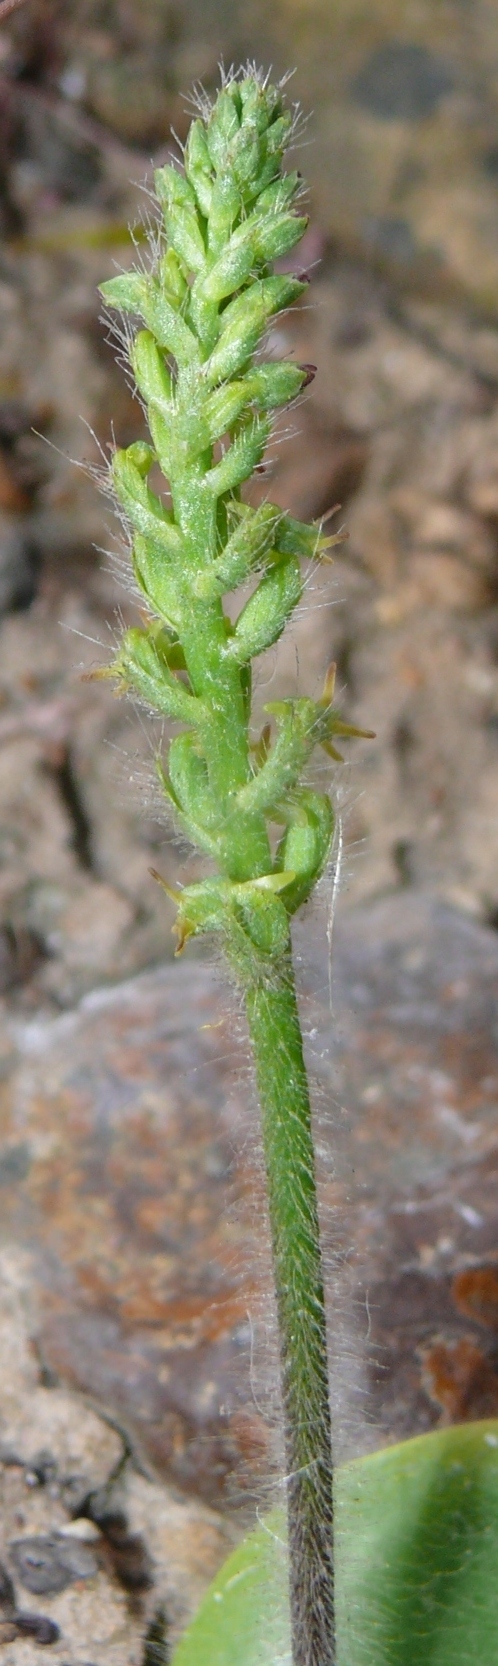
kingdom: Plantae
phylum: Tracheophyta
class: Liliopsida
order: Asparagales
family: Orchidaceae
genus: Holothrix
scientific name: Holothrix condensata
